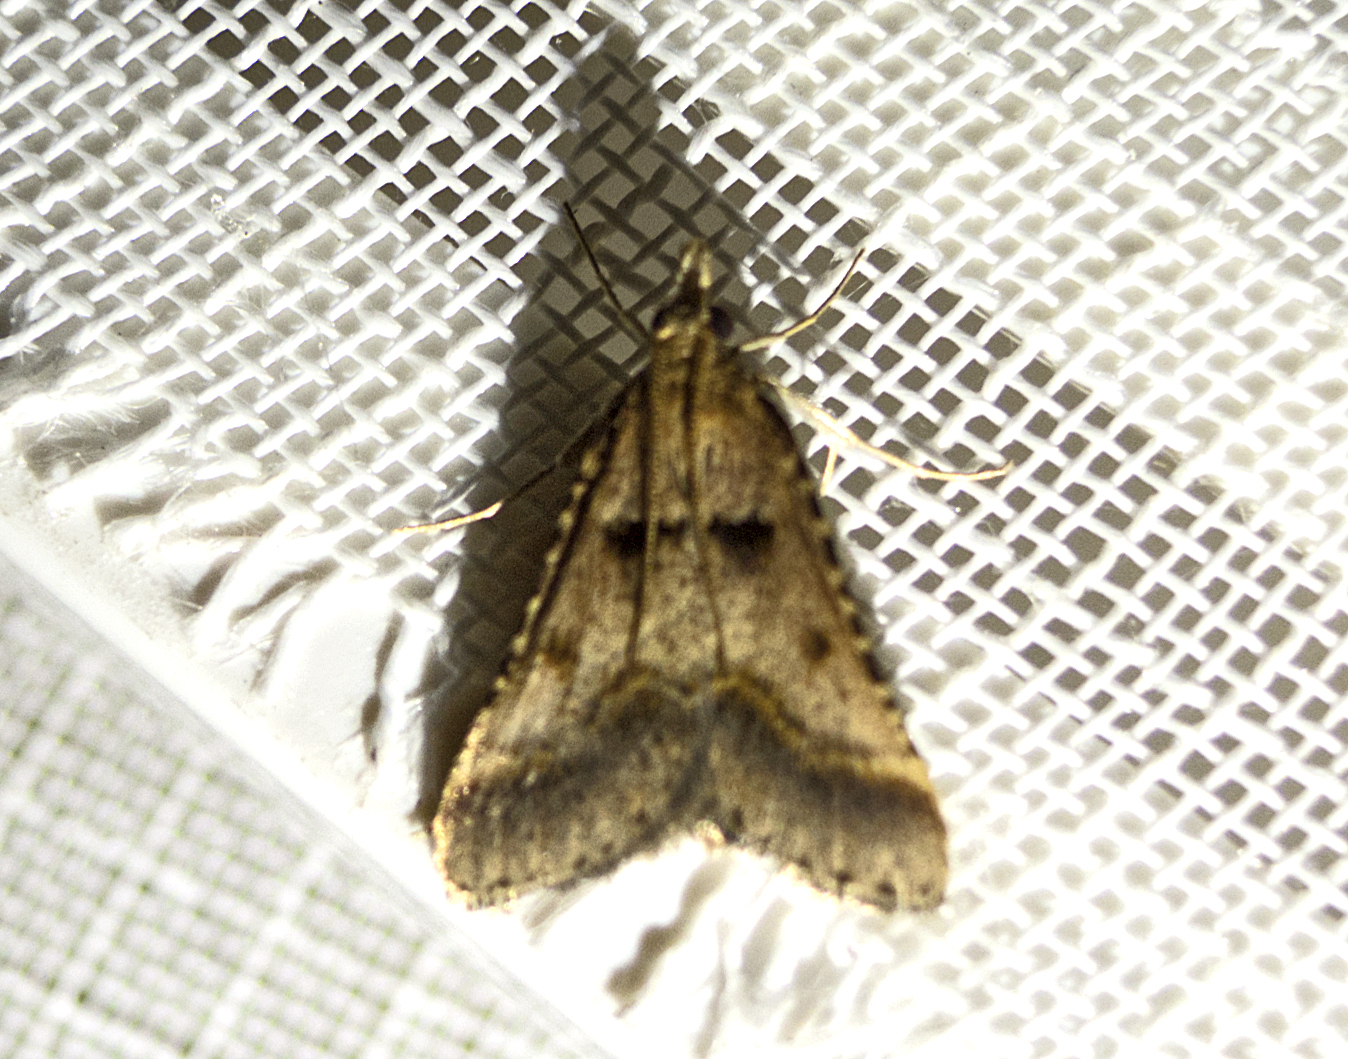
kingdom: Animalia
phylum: Arthropoda
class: Insecta
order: Lepidoptera
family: Pyralidae
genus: Stemmatophora
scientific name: Stemmatophora brunnealis
